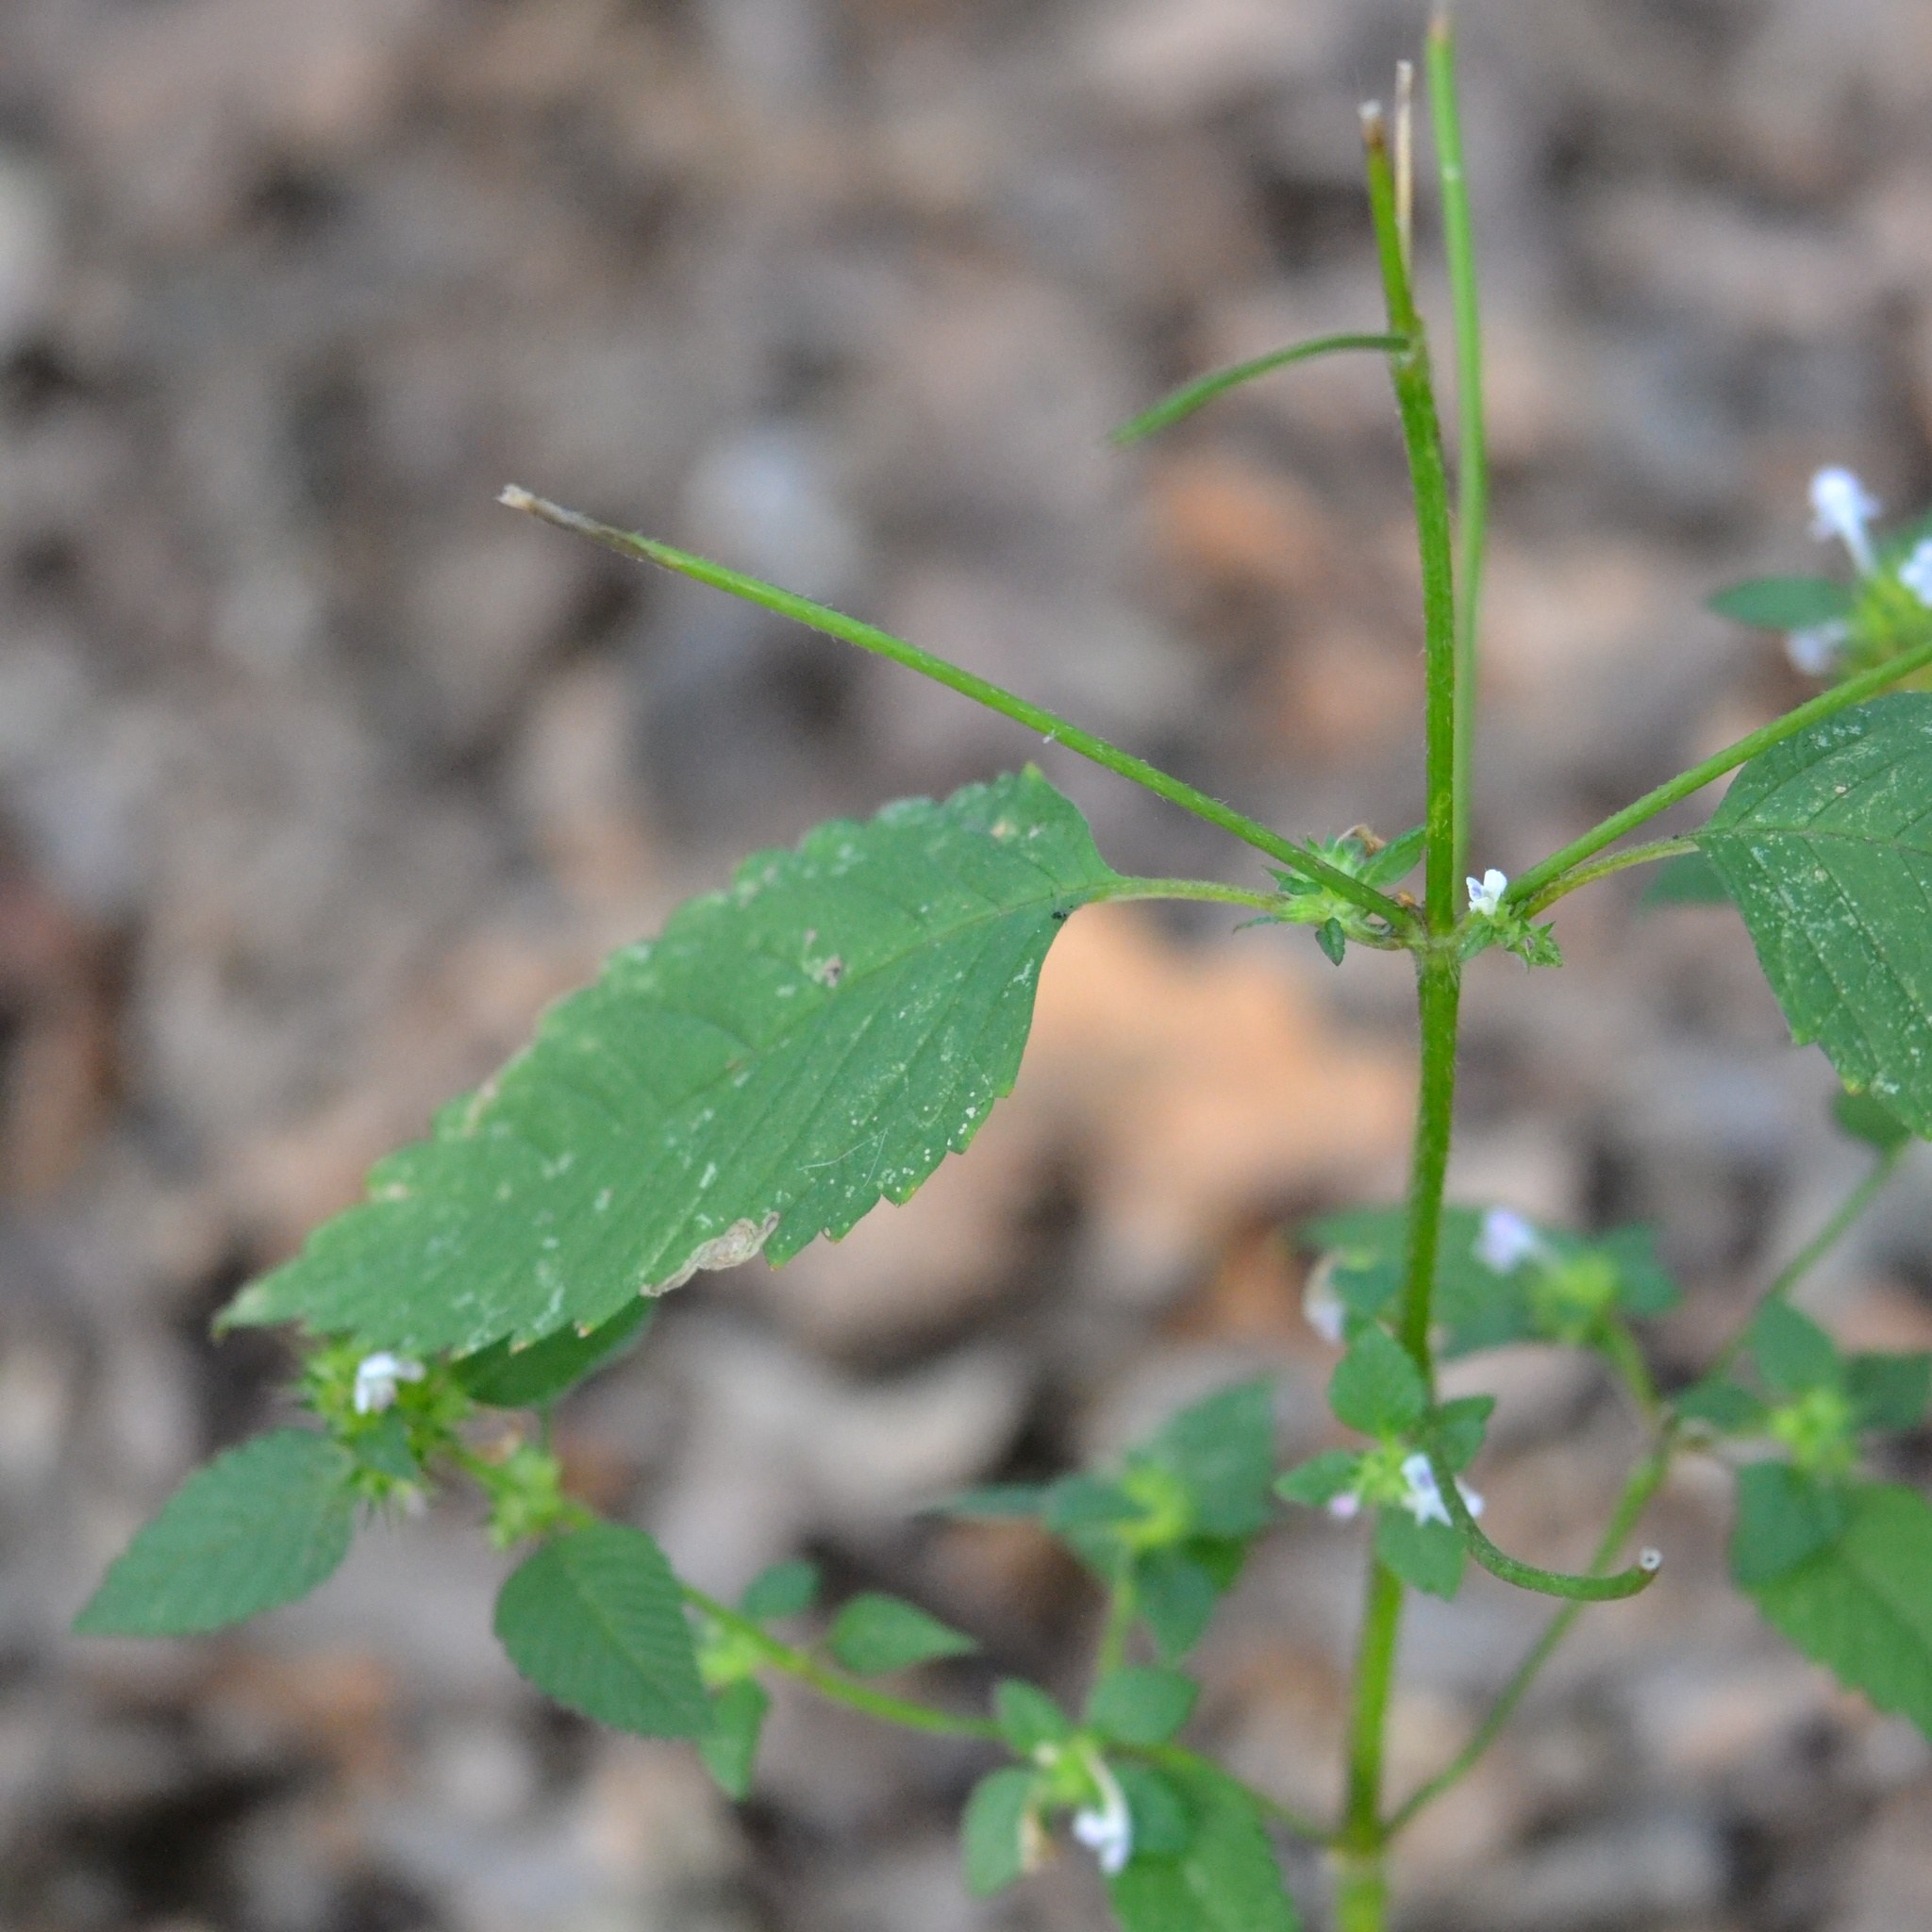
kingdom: Plantae
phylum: Tracheophyta
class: Magnoliopsida
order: Lamiales
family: Lamiaceae
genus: Galeopsis
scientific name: Galeopsis tetrahit
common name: Common hemp-nettle
